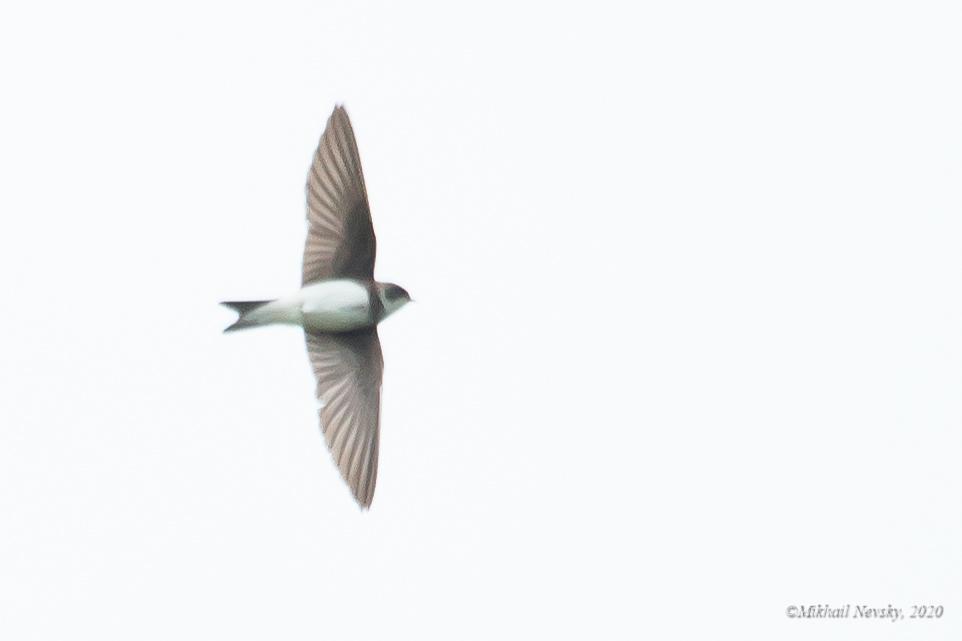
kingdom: Animalia
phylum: Chordata
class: Aves
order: Passeriformes
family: Hirundinidae
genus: Riparia
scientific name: Riparia riparia
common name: Sand martin
